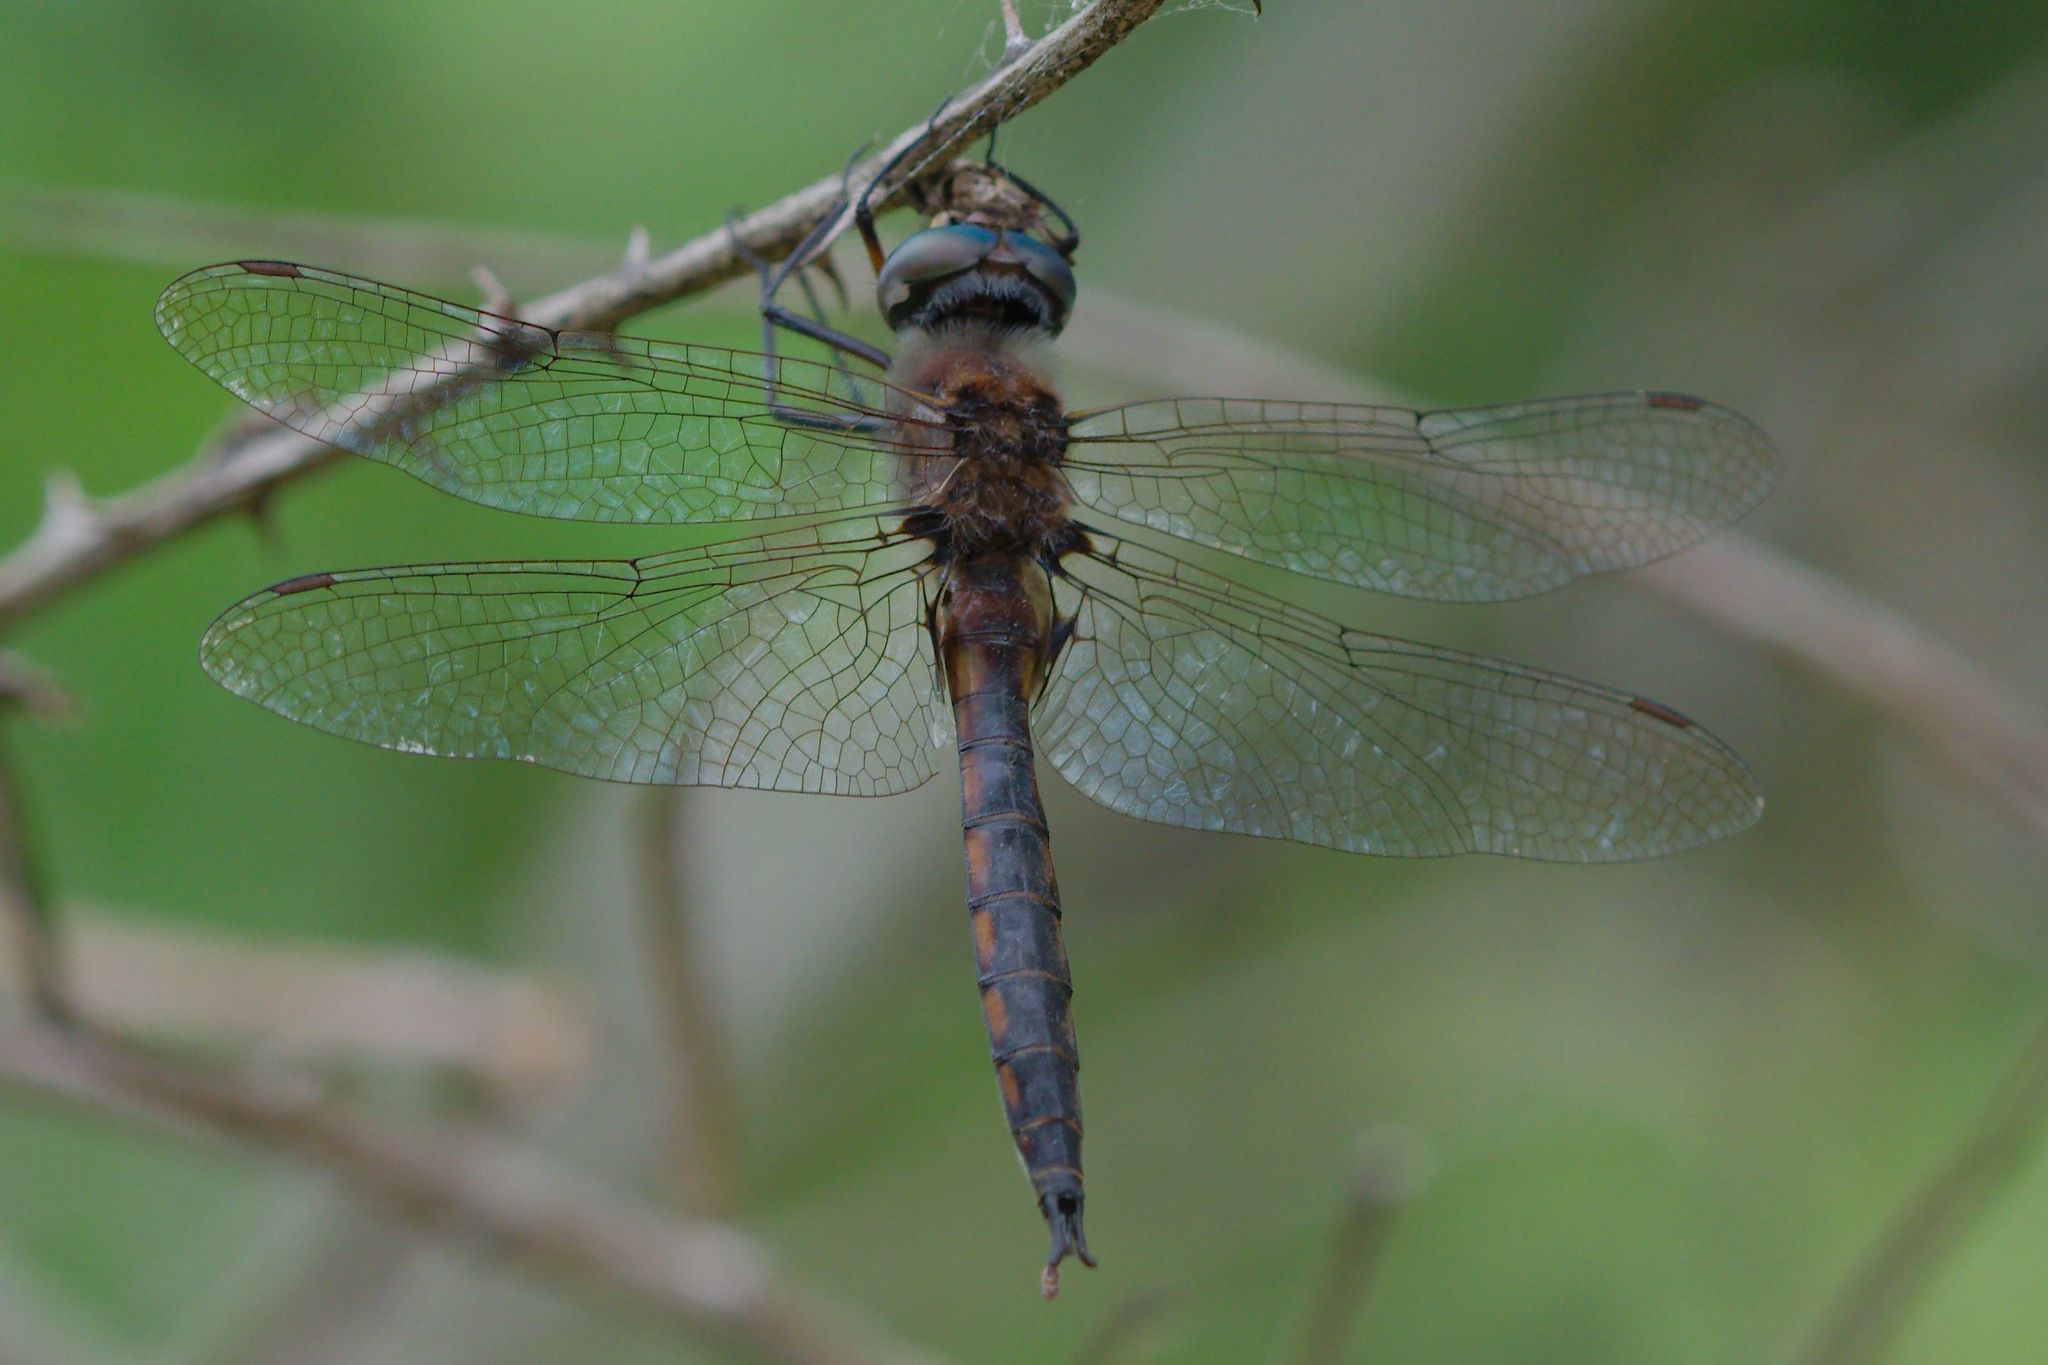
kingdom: Animalia
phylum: Arthropoda
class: Insecta
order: Odonata
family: Corduliidae
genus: Epitheca
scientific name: Epitheca cynosura
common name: Common baskettail
